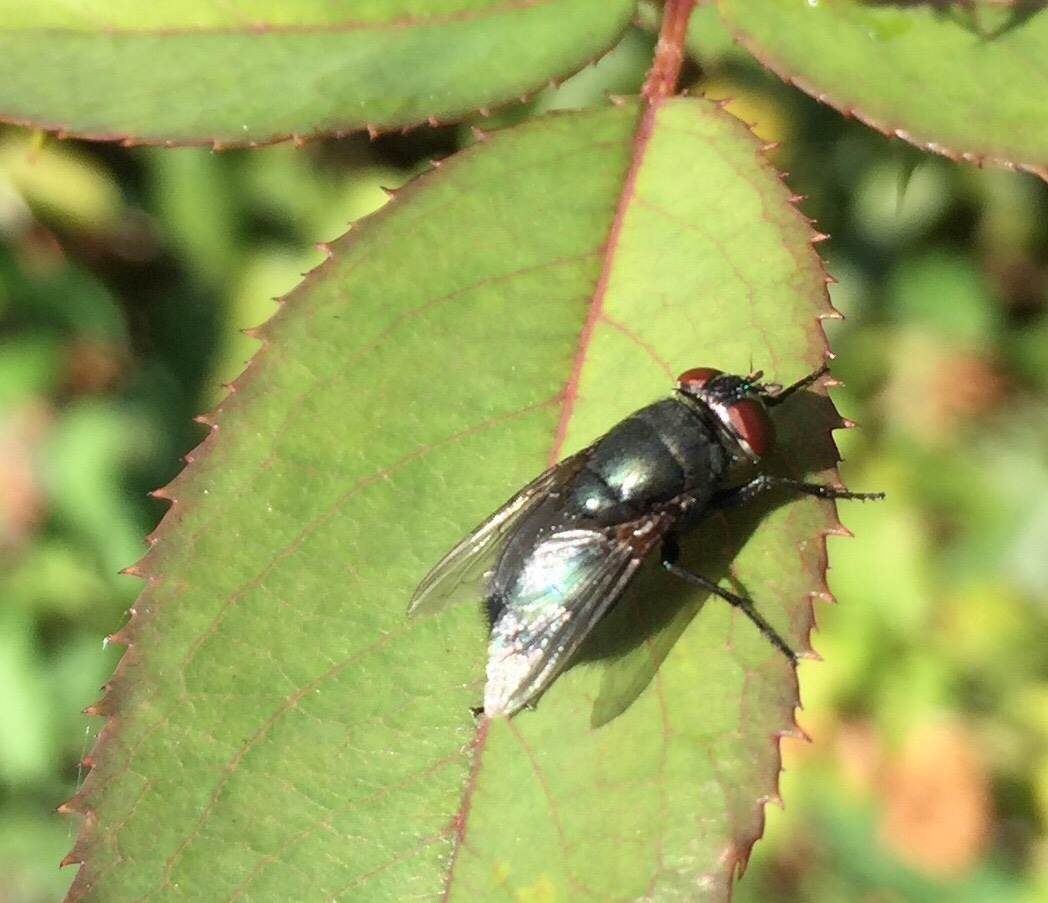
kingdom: Animalia
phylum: Arthropoda
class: Insecta
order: Diptera
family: Calliphoridae
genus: Phormia
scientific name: Phormia regina
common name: Black blow fly
